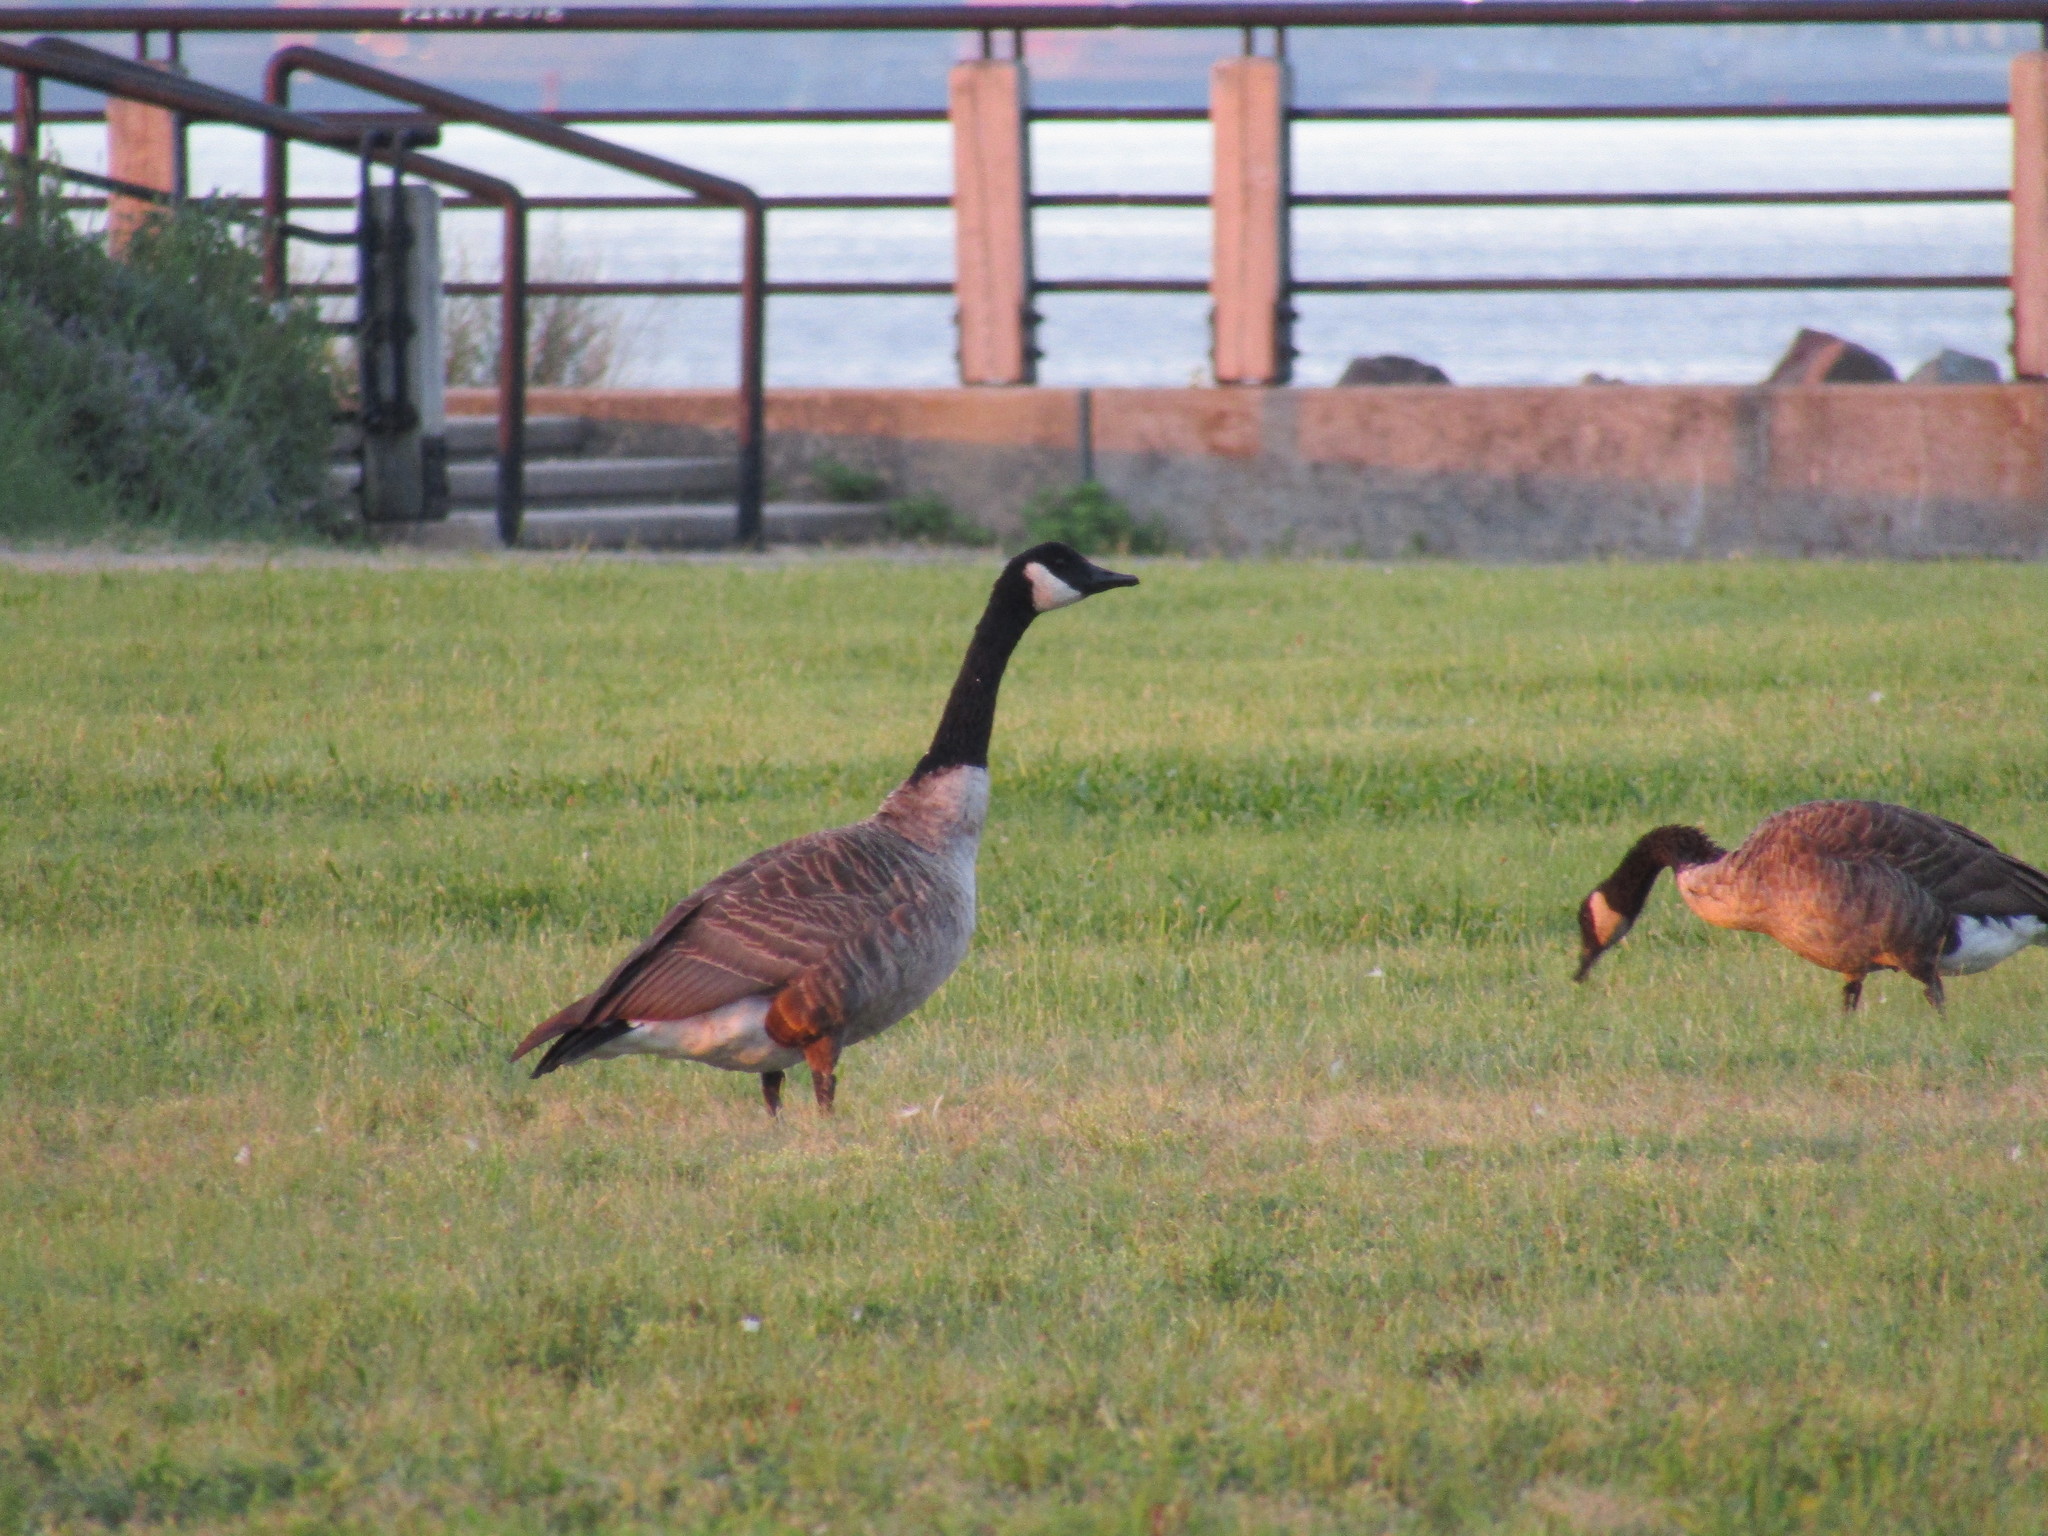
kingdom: Animalia
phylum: Chordata
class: Aves
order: Anseriformes
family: Anatidae
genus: Branta
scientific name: Branta canadensis
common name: Canada goose
